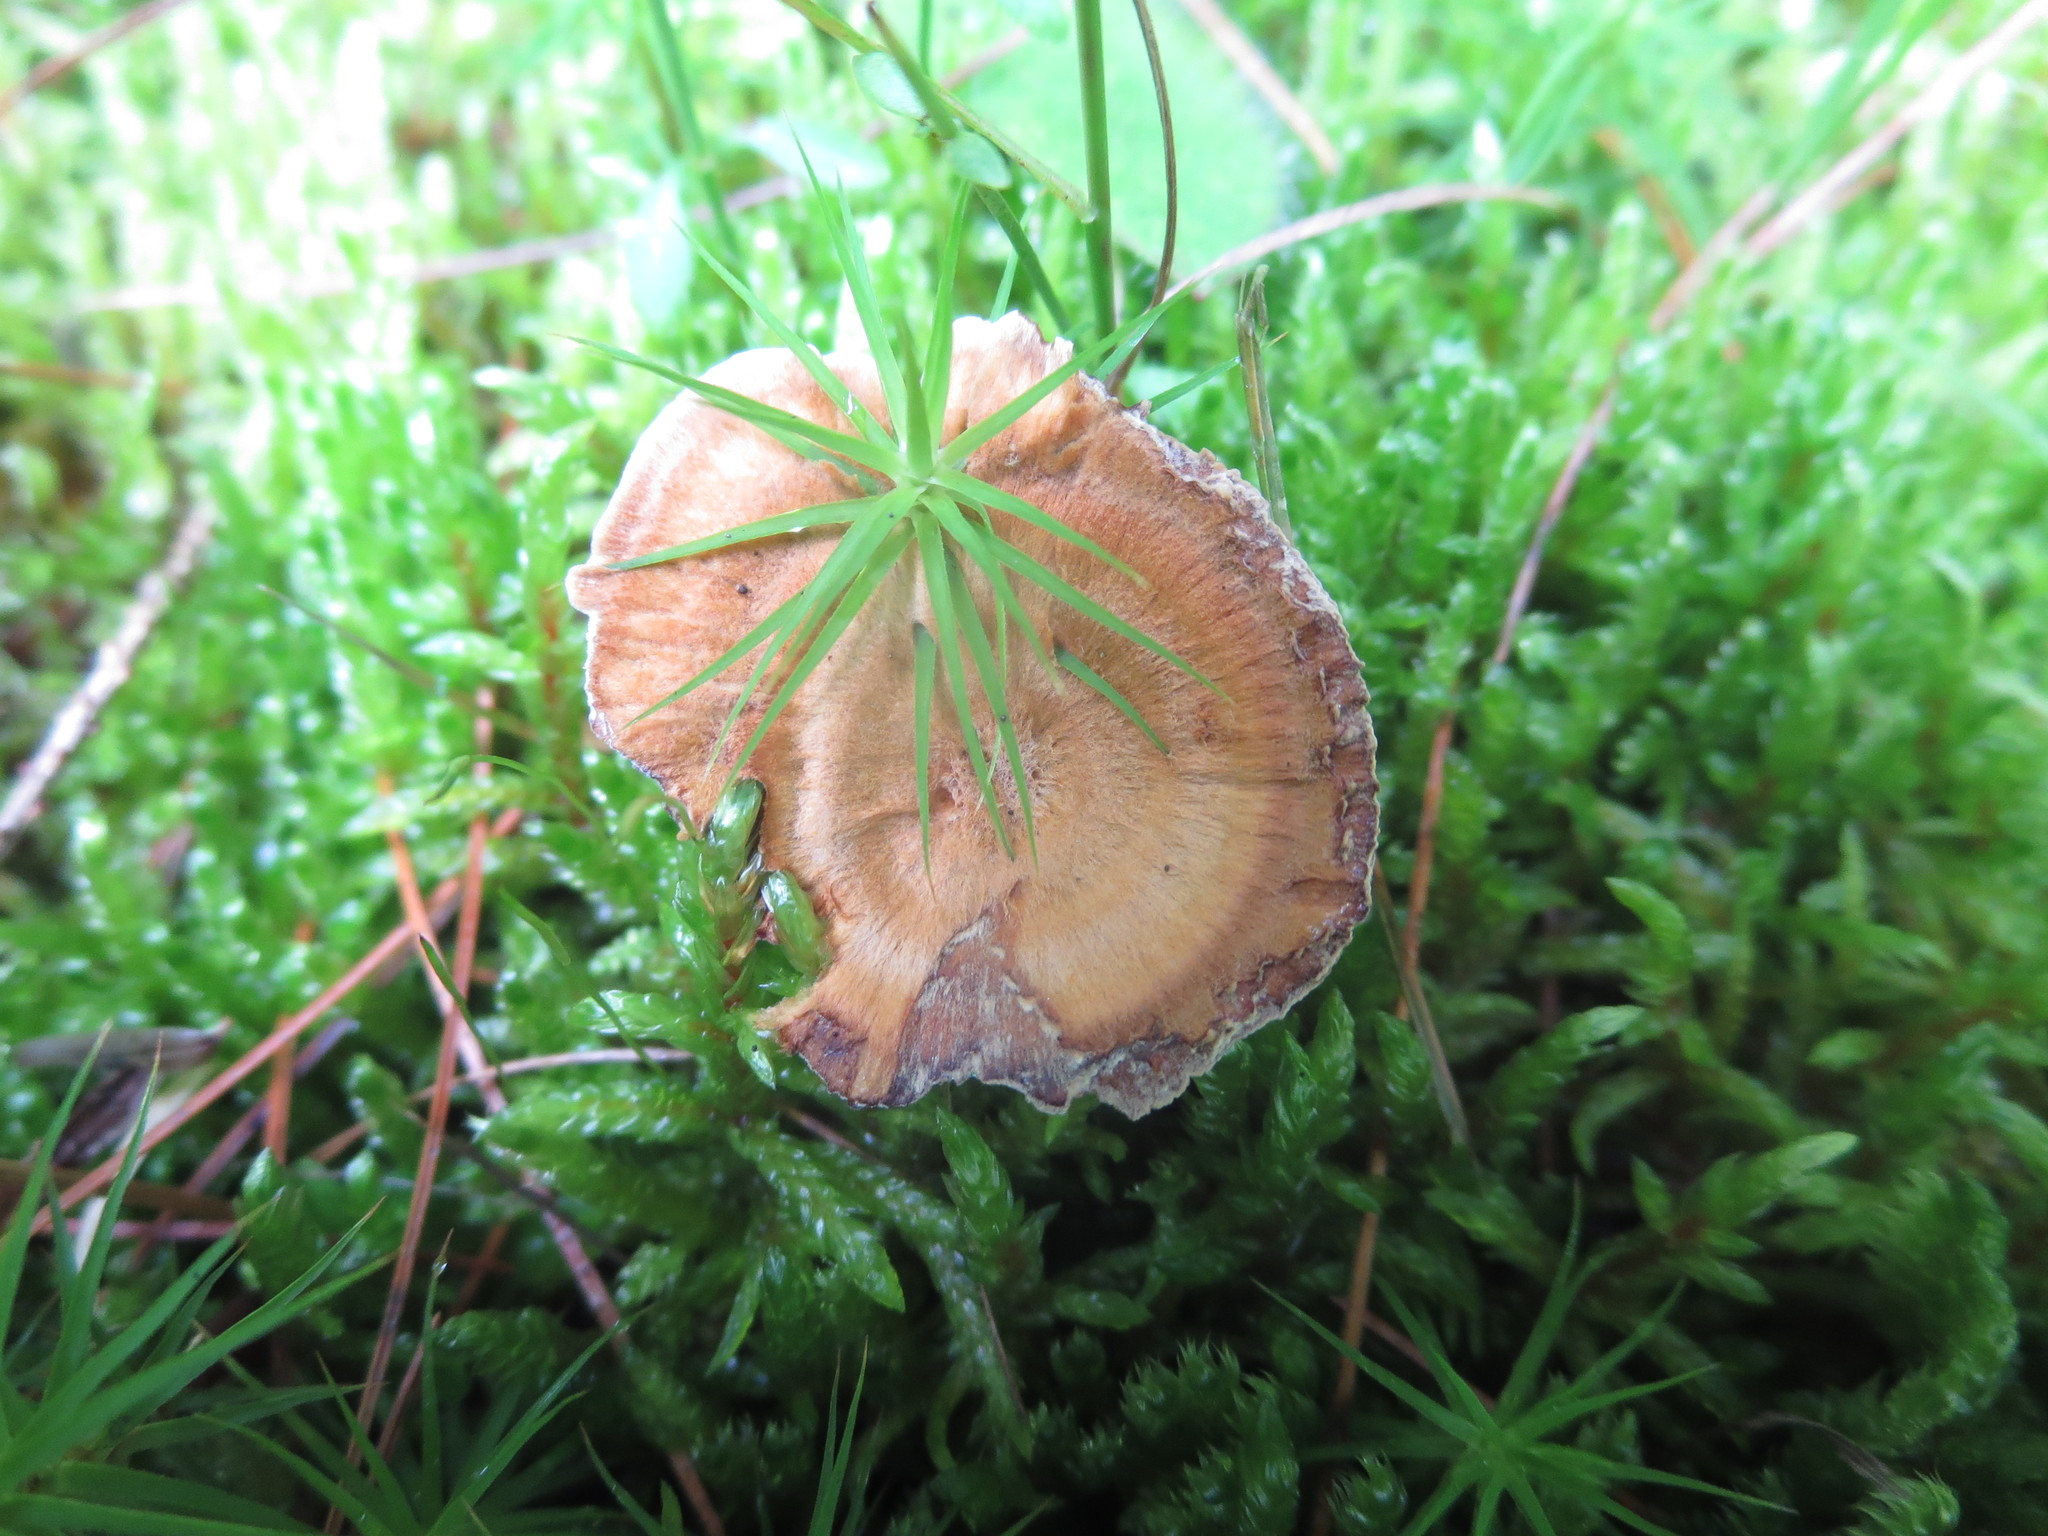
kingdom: Fungi
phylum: Basidiomycota
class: Agaricomycetes
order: Hymenochaetales
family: Hymenochaetaceae
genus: Coltricia
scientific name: Coltricia perennis
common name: Tiger's eye
